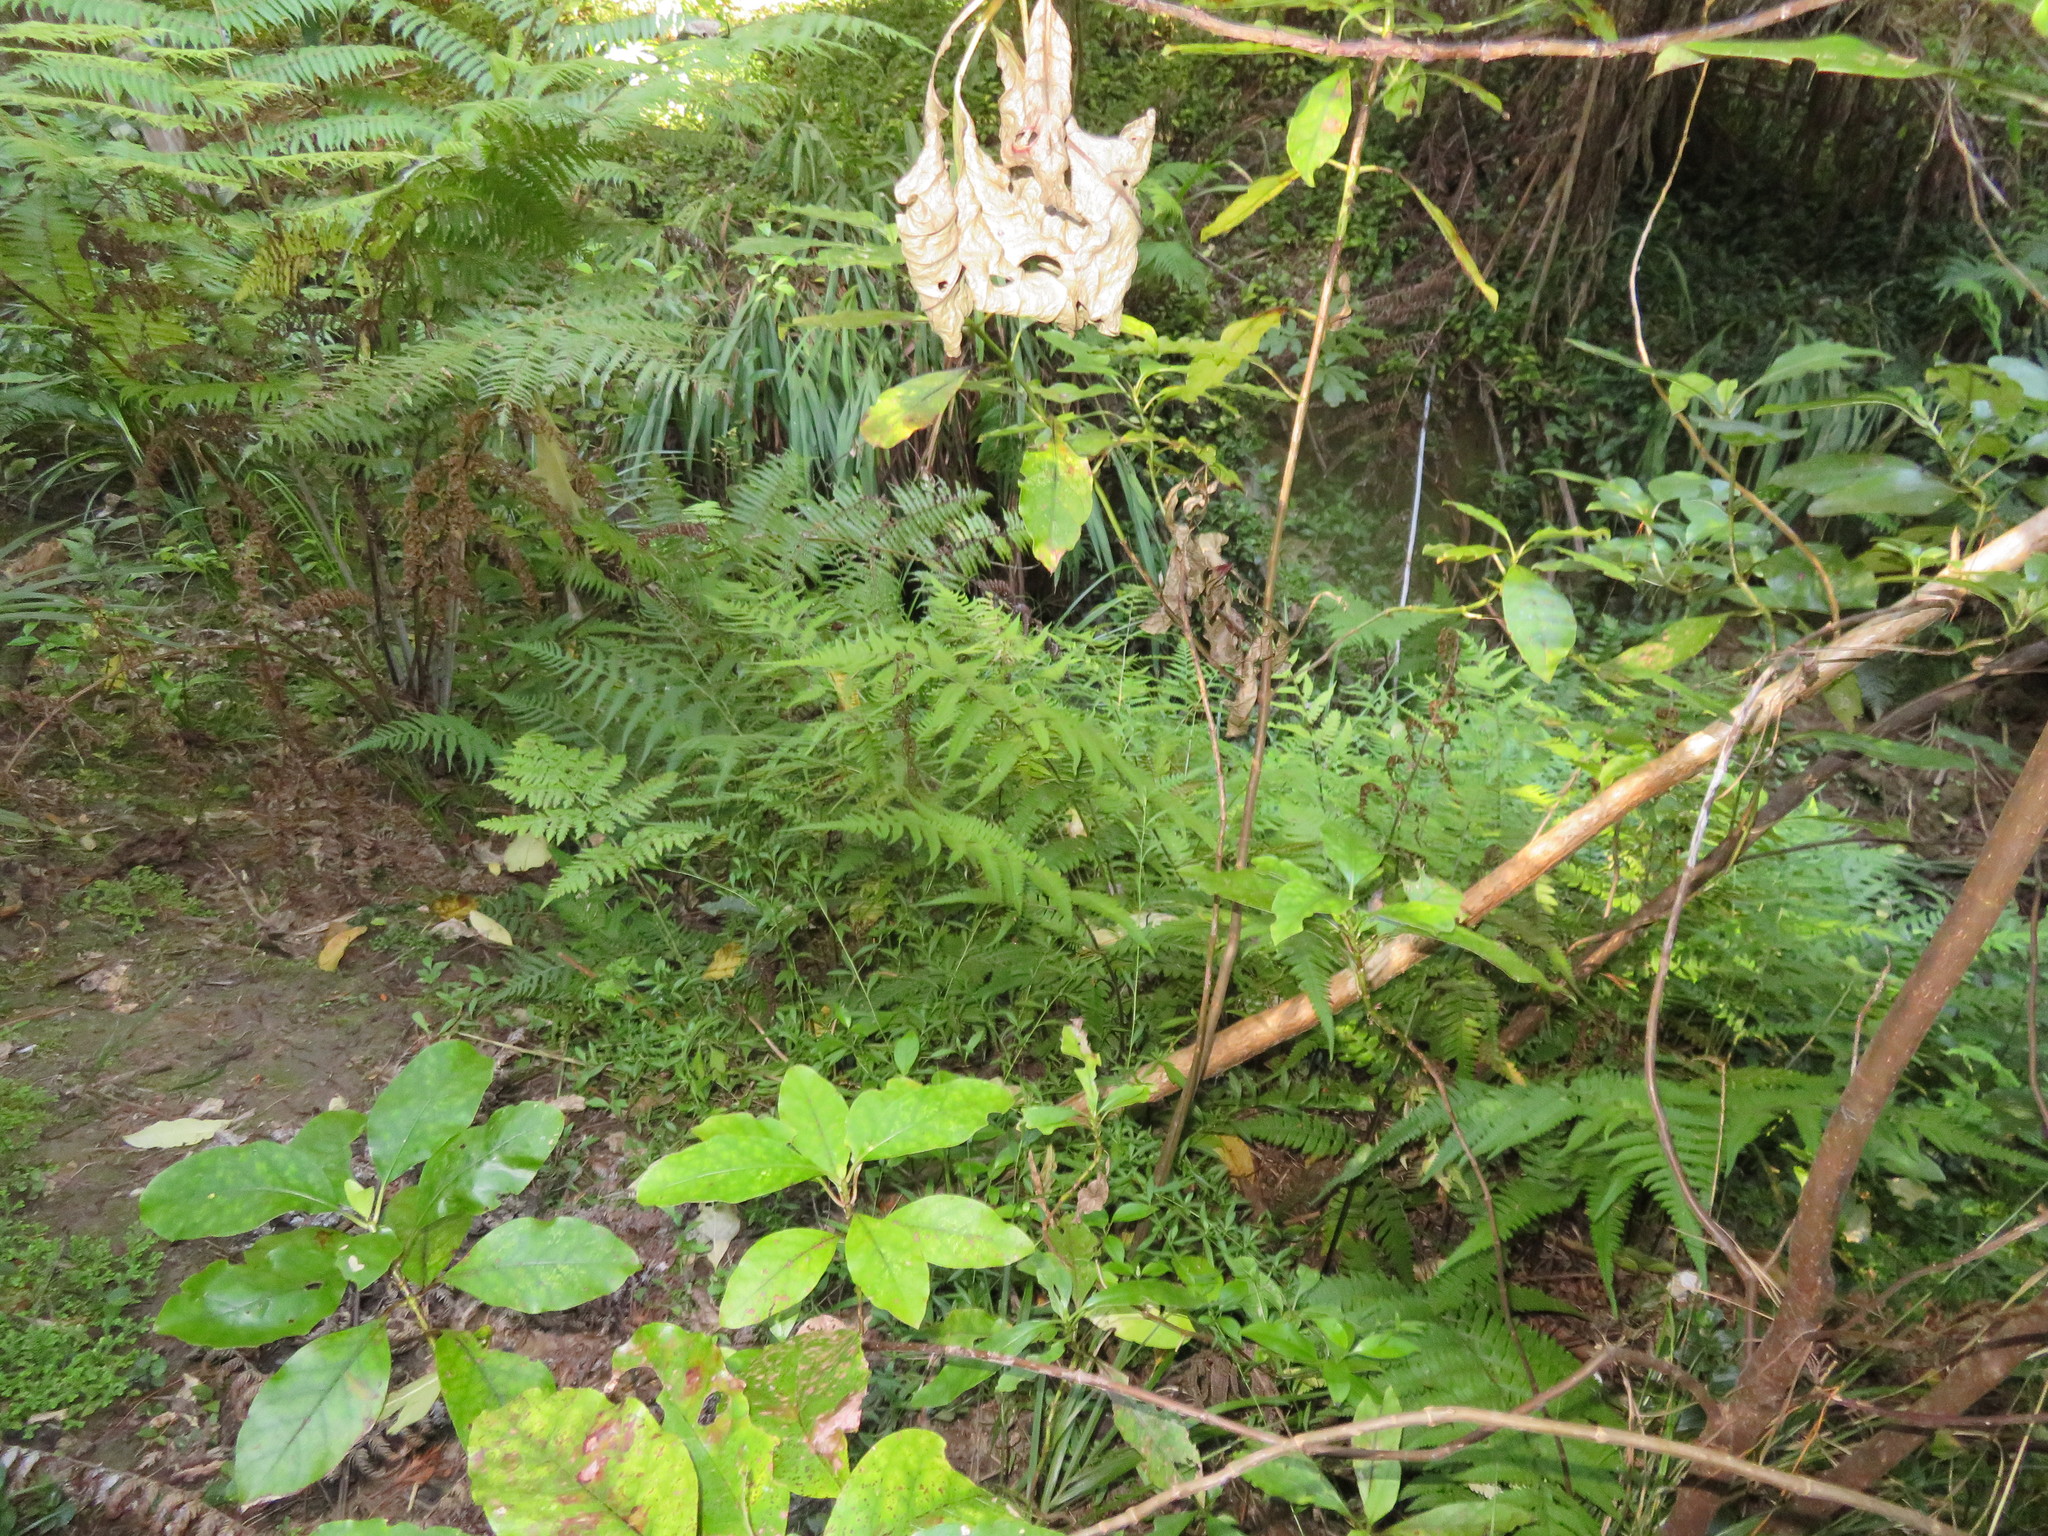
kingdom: Plantae
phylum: Tracheophyta
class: Magnoliopsida
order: Gentianales
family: Rubiaceae
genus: Coprosma
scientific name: Coprosma autumnalis
